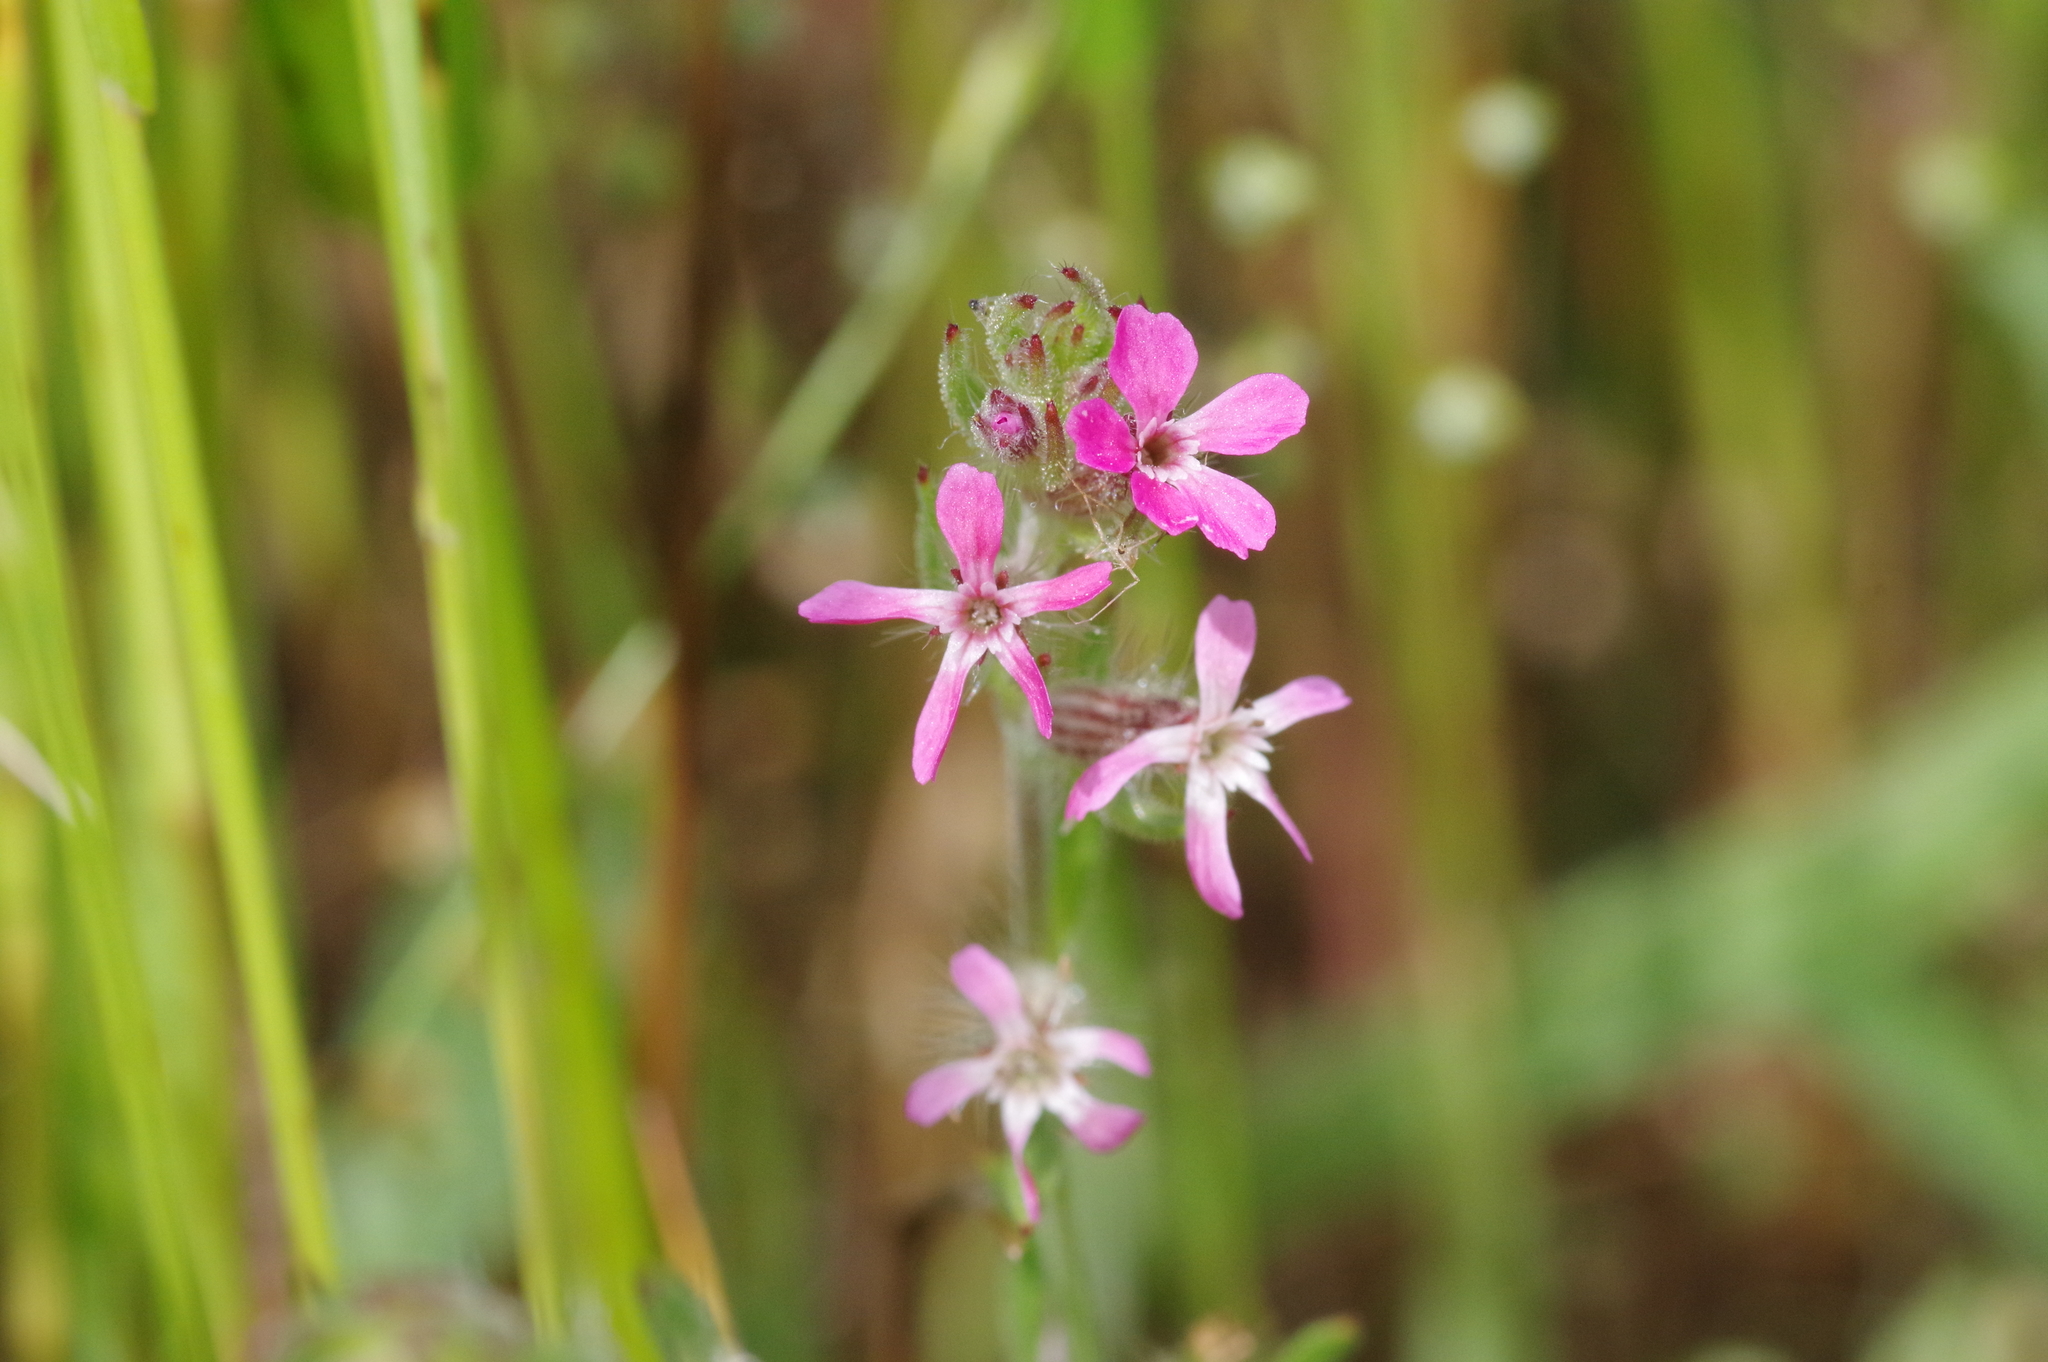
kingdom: Plantae
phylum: Tracheophyta
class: Magnoliopsida
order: Caryophyllales
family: Caryophyllaceae
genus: Silene
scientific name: Silene gallica
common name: Small-flowered catchfly
